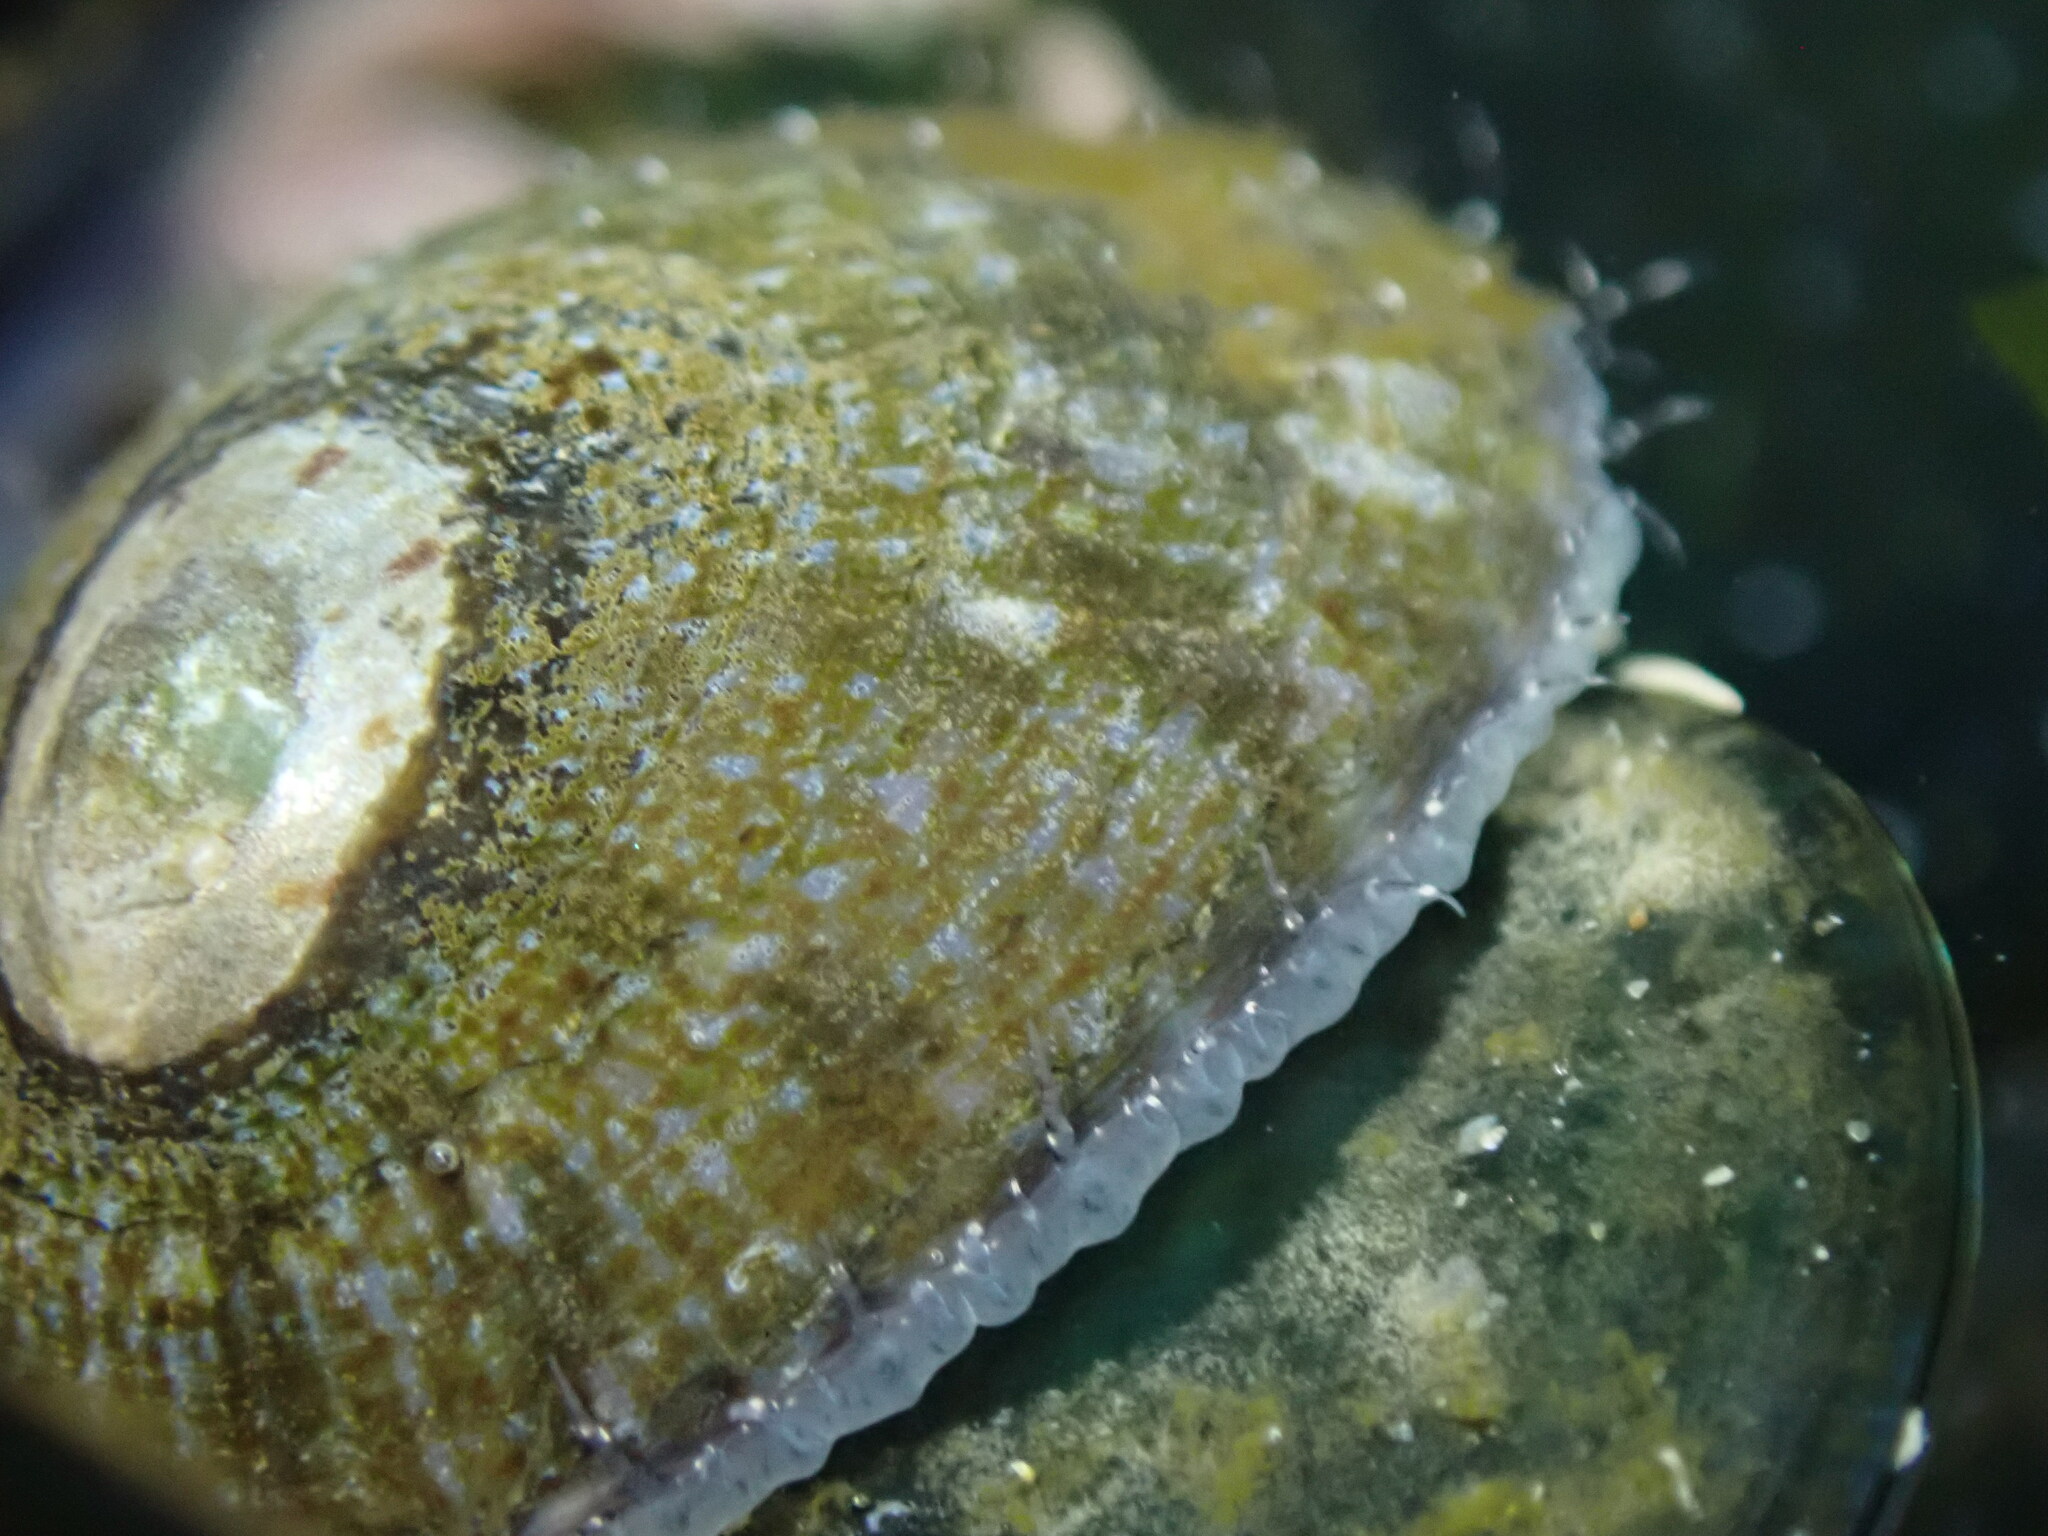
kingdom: Animalia
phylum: Mollusca
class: Gastropoda
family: Nacellidae
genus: Cellana
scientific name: Cellana radians
